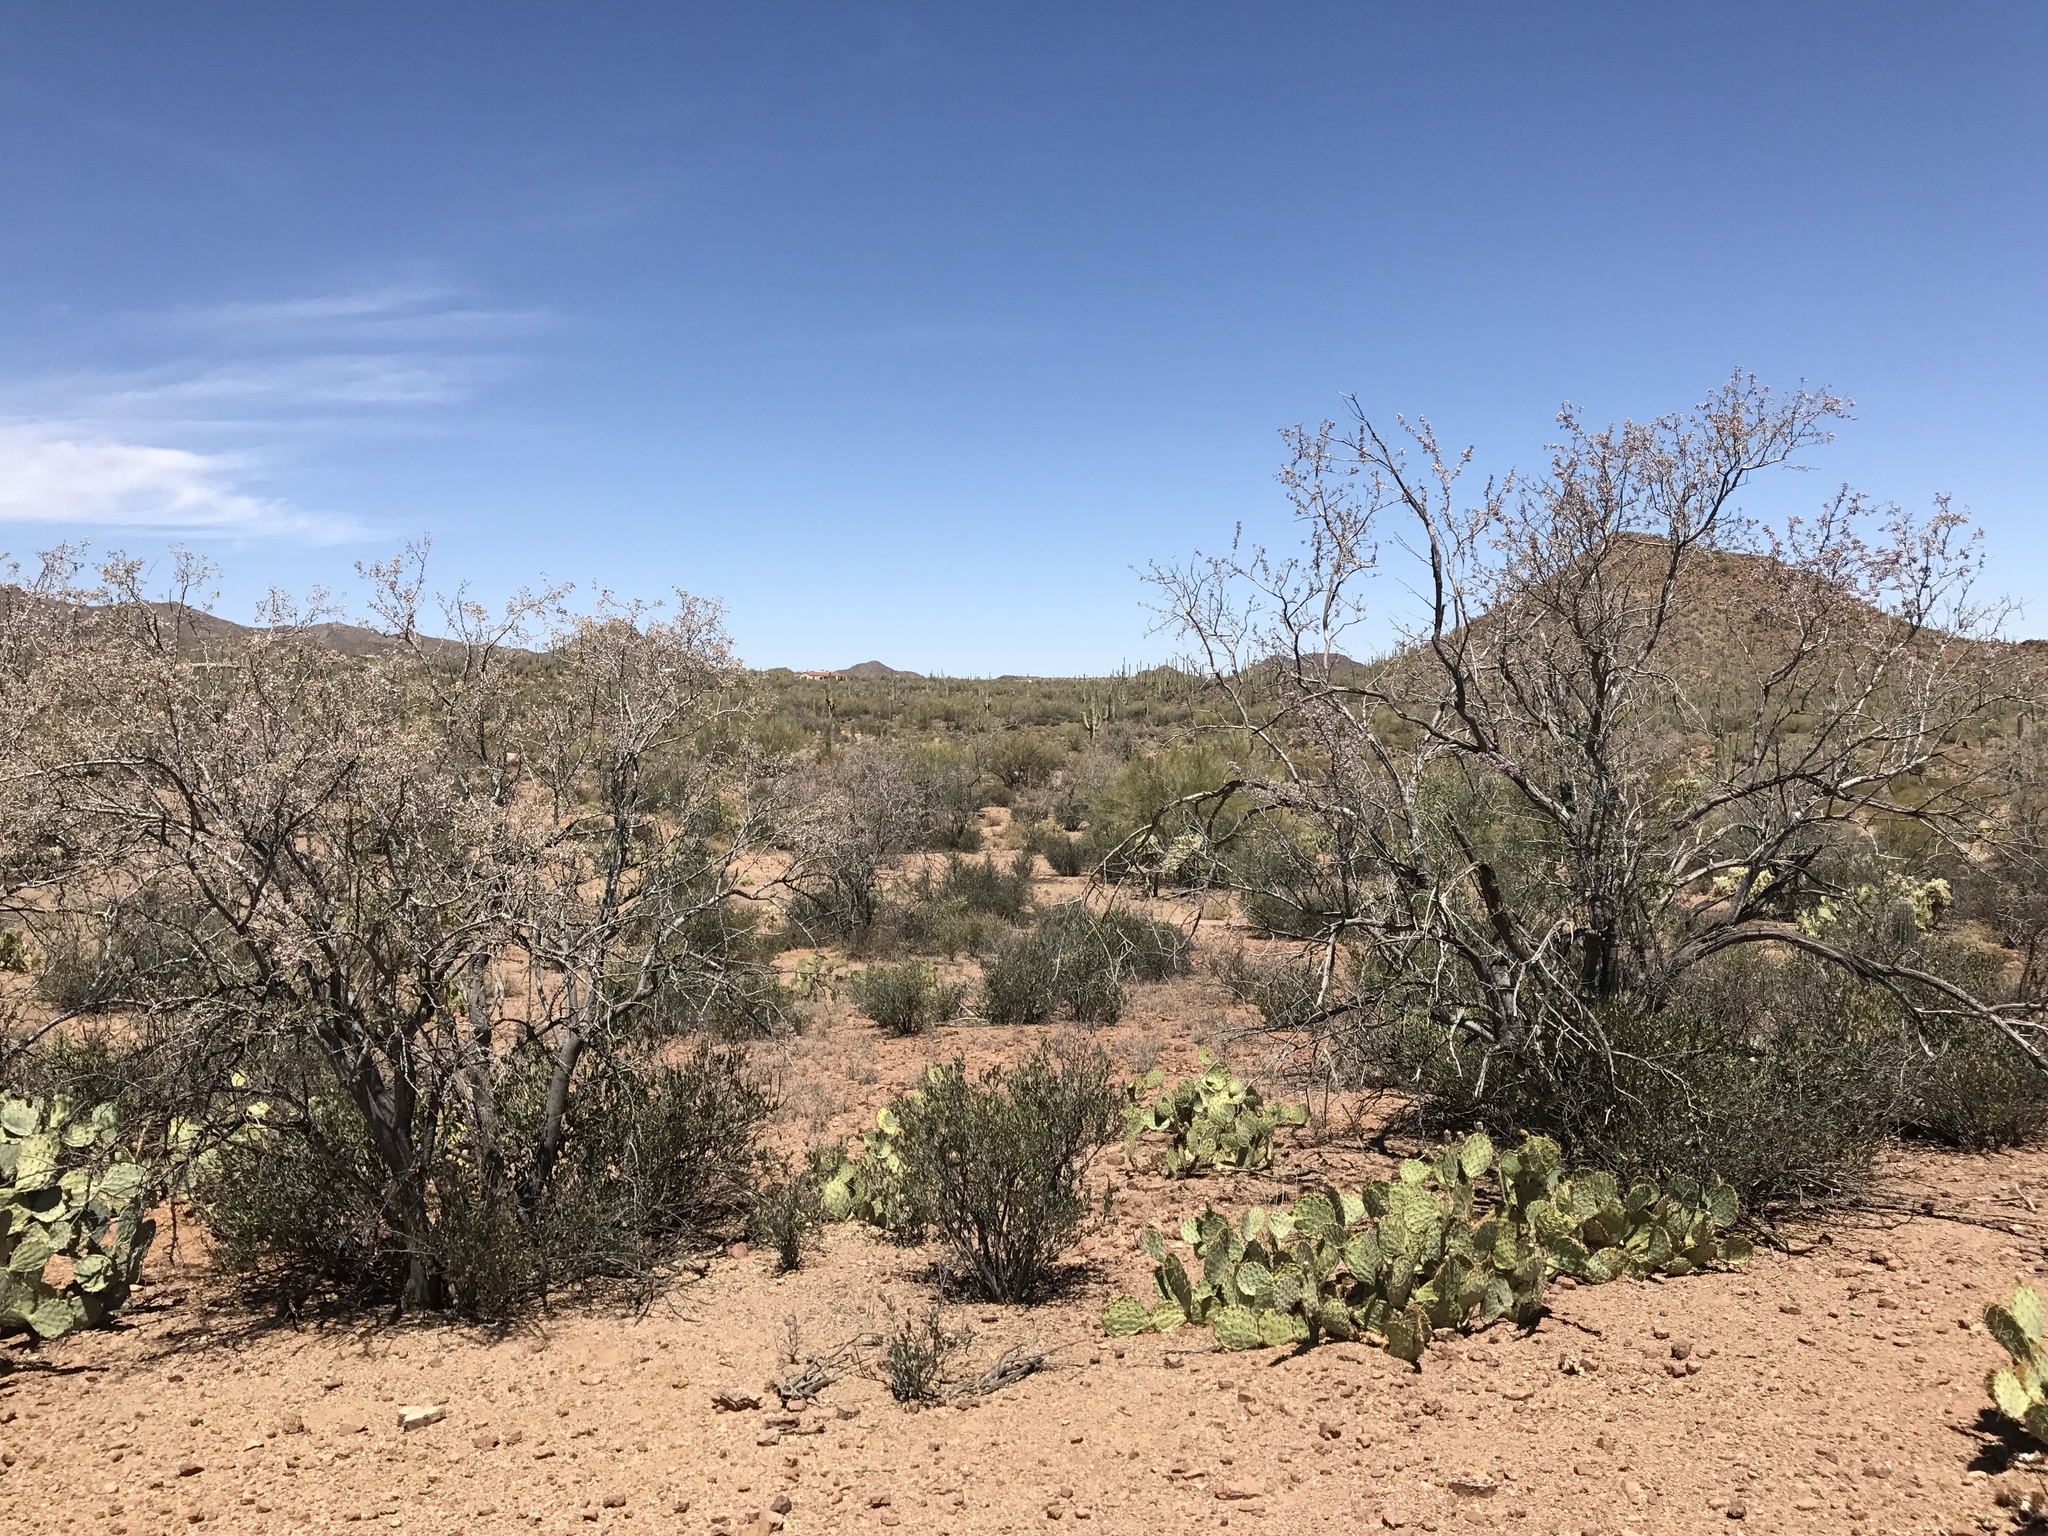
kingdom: Plantae
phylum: Tracheophyta
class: Magnoliopsida
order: Fabales
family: Fabaceae
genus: Olneya
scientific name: Olneya tesota
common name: Desert ironwood
